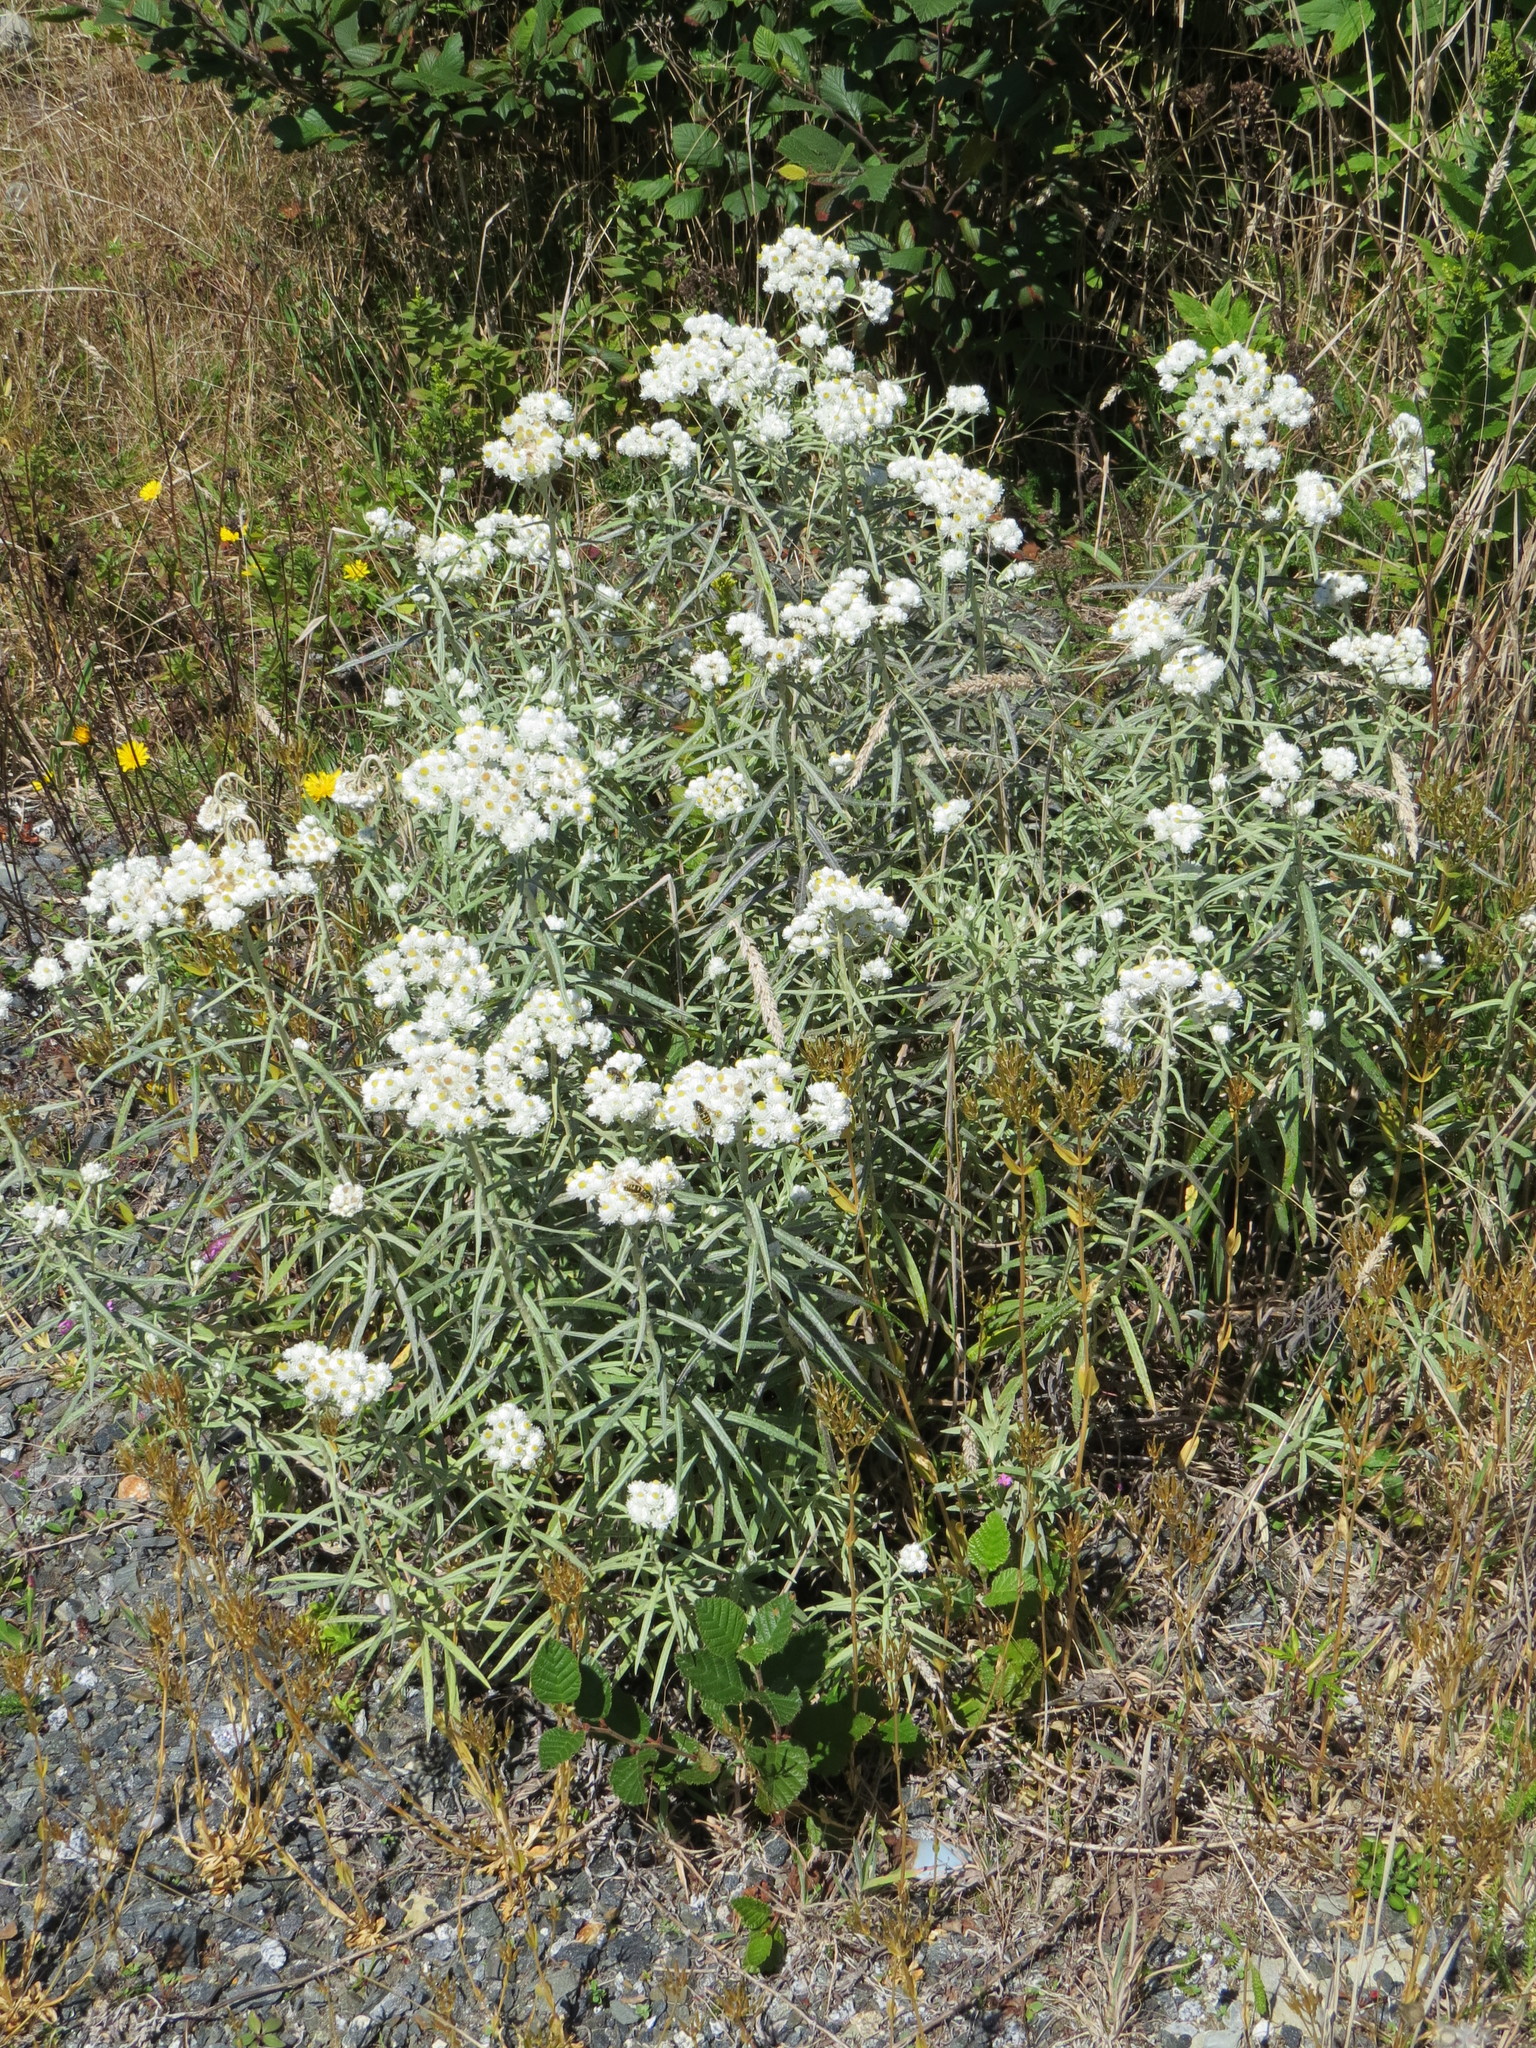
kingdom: Plantae
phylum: Tracheophyta
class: Magnoliopsida
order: Asterales
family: Asteraceae
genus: Anaphalis
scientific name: Anaphalis margaritacea
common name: Pearly everlasting
